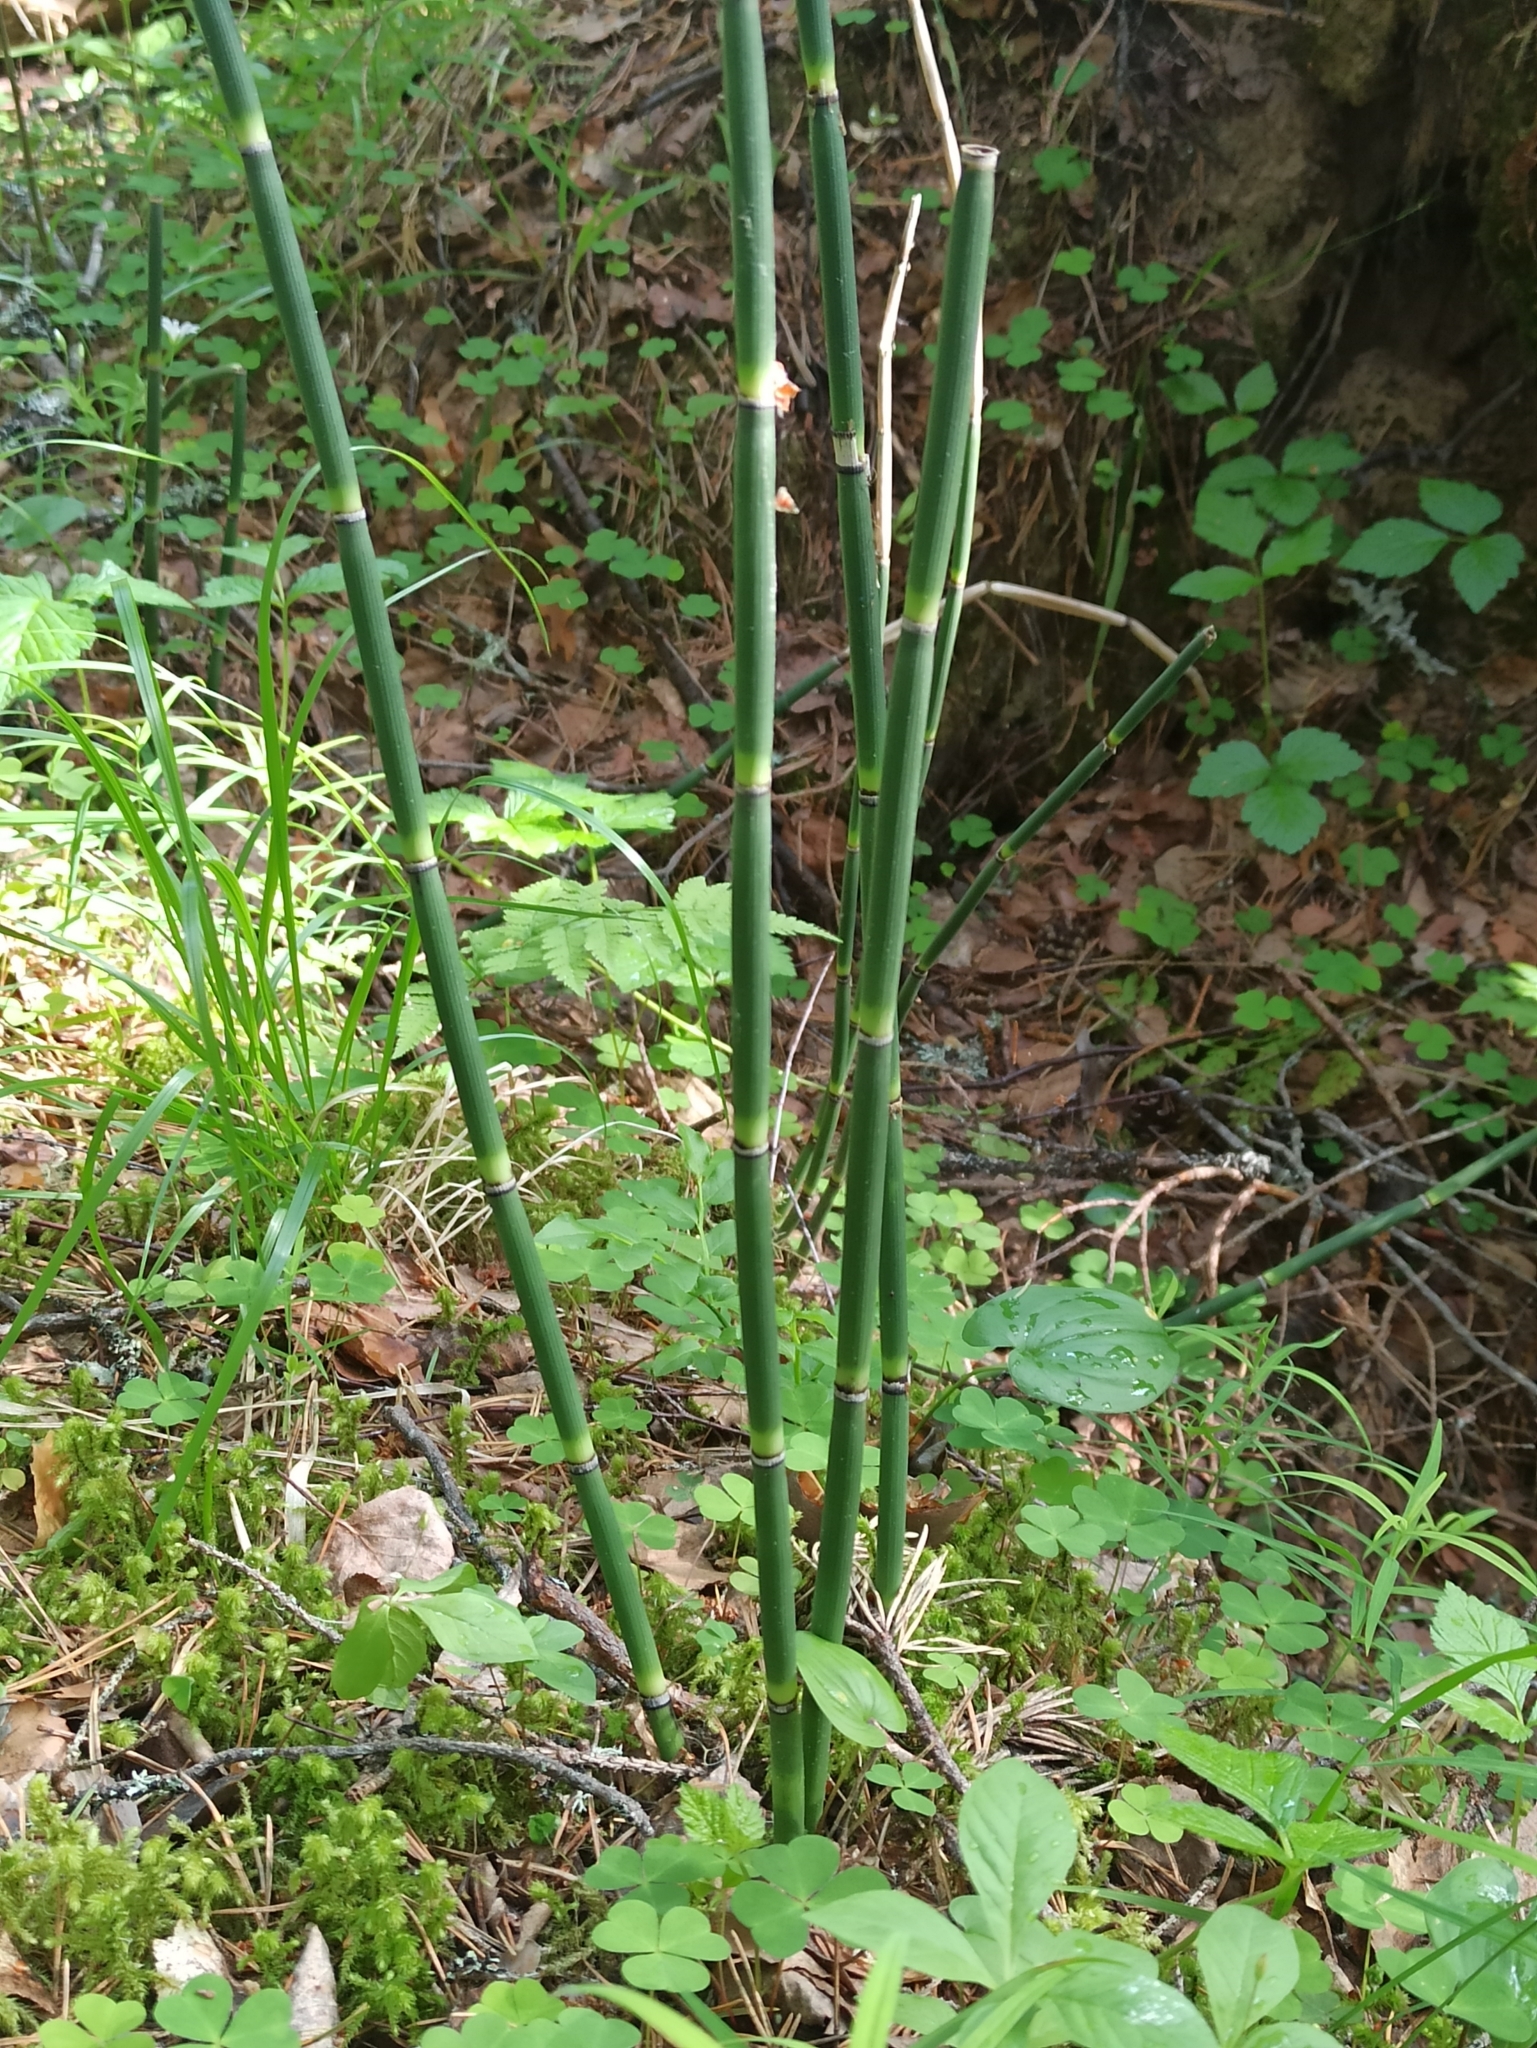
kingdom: Plantae
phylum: Tracheophyta
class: Polypodiopsida
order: Equisetales
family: Equisetaceae
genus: Equisetum
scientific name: Equisetum hyemale
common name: Rough horsetail
